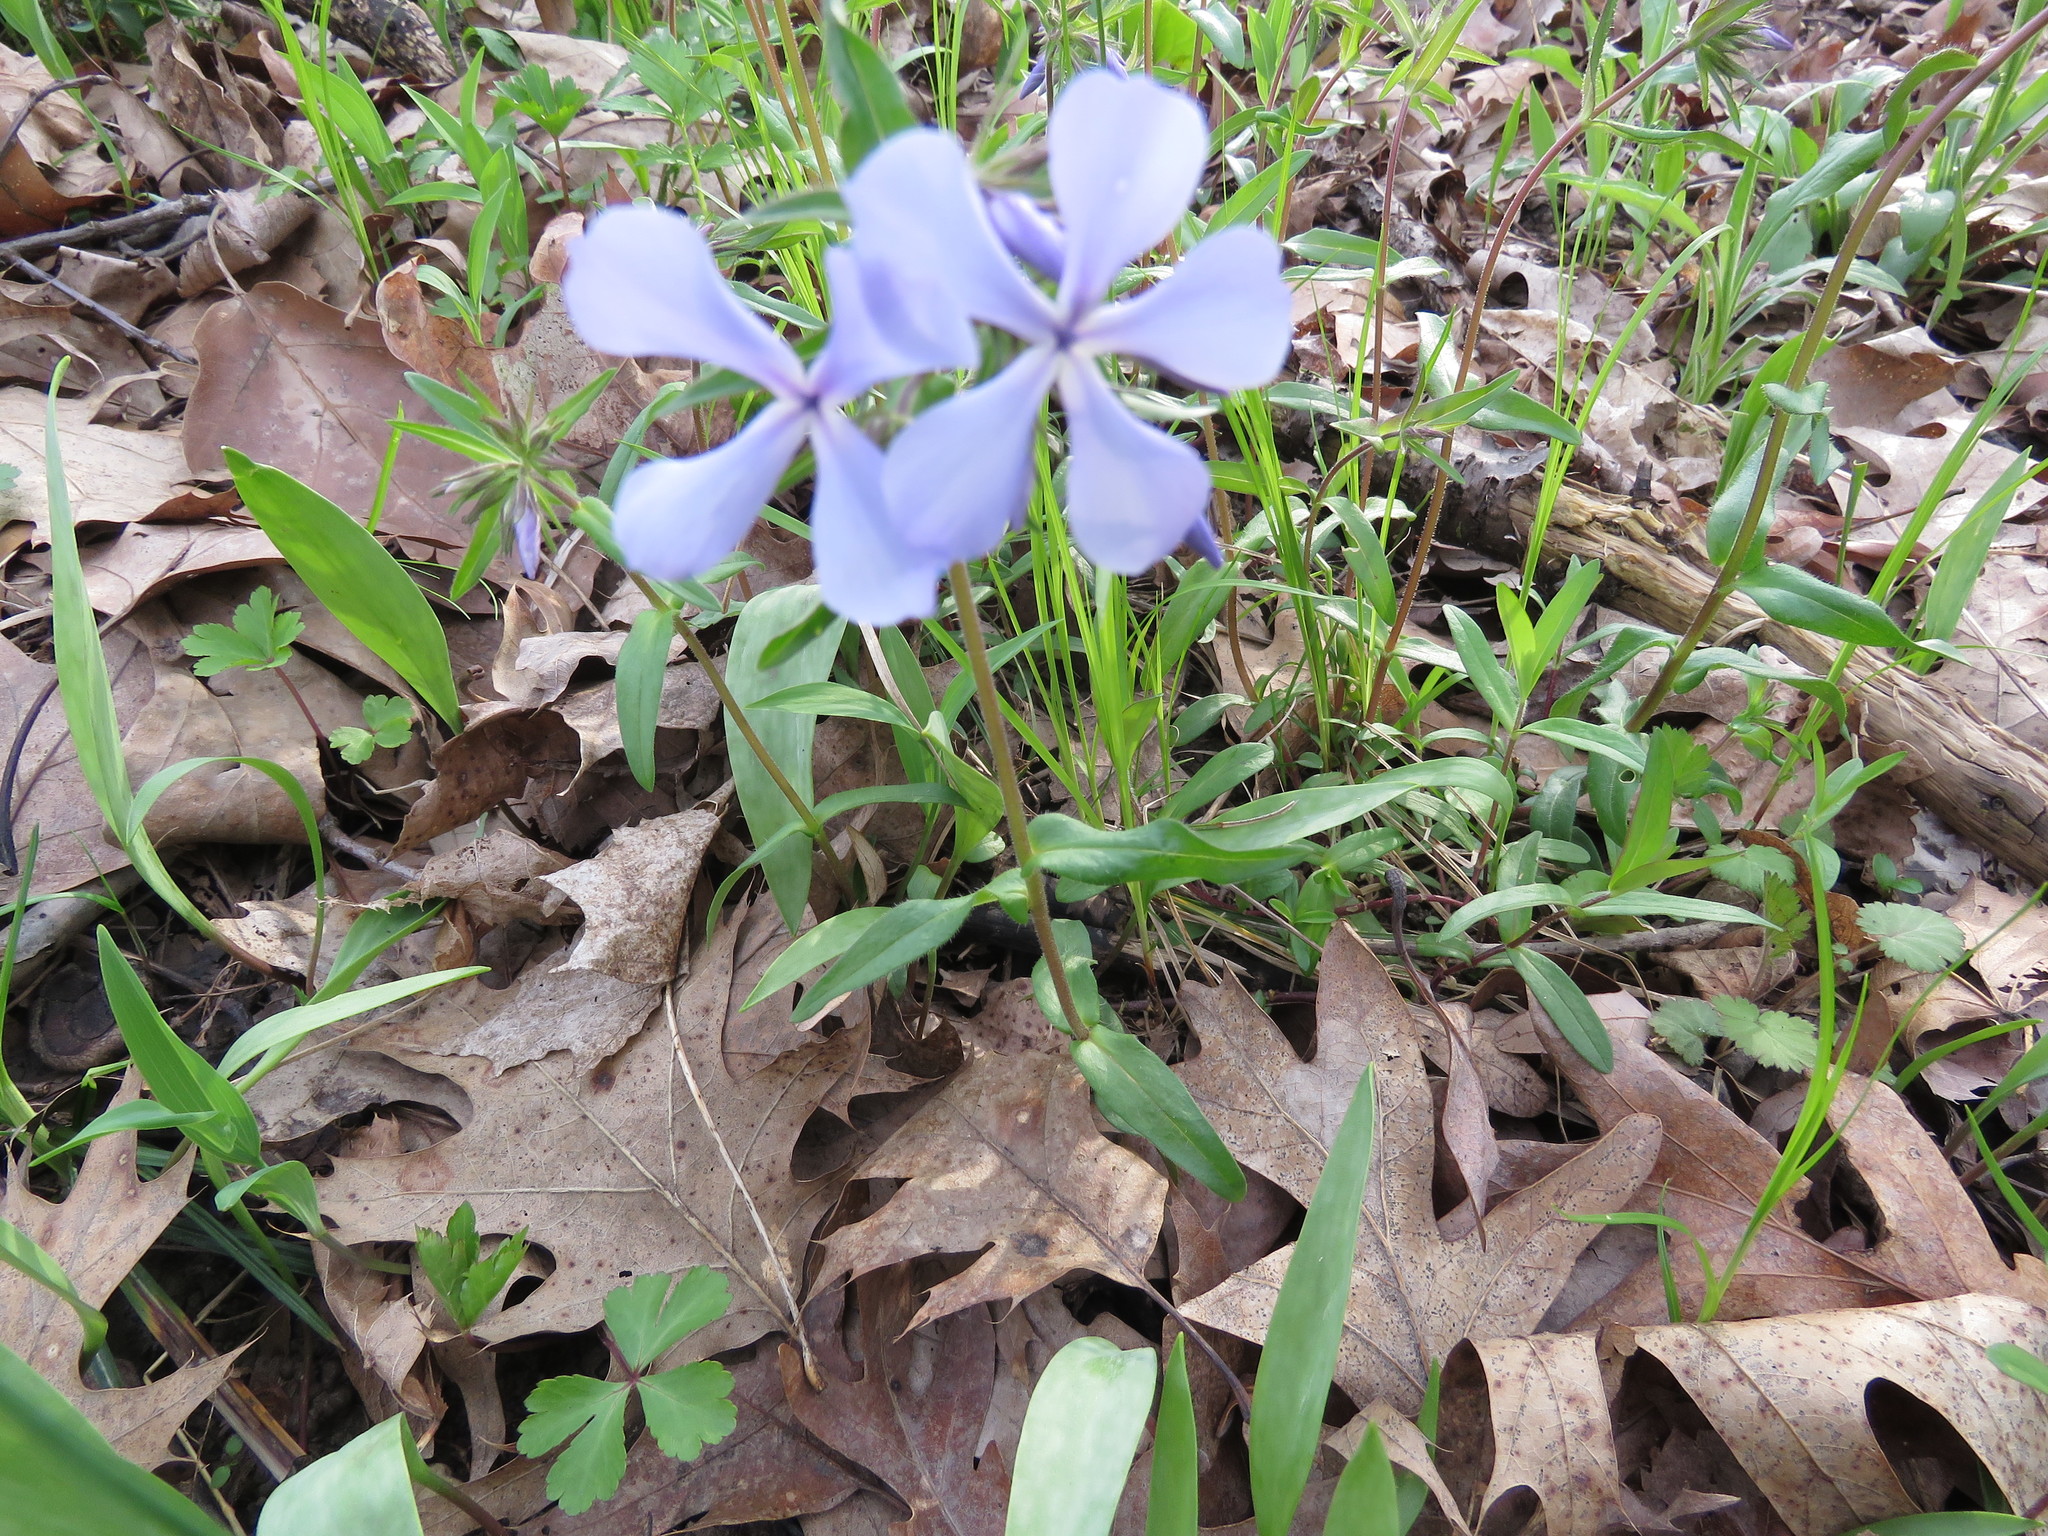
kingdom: Plantae
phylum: Tracheophyta
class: Magnoliopsida
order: Ericales
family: Polemoniaceae
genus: Phlox
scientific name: Phlox divaricata
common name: Blue phlox
